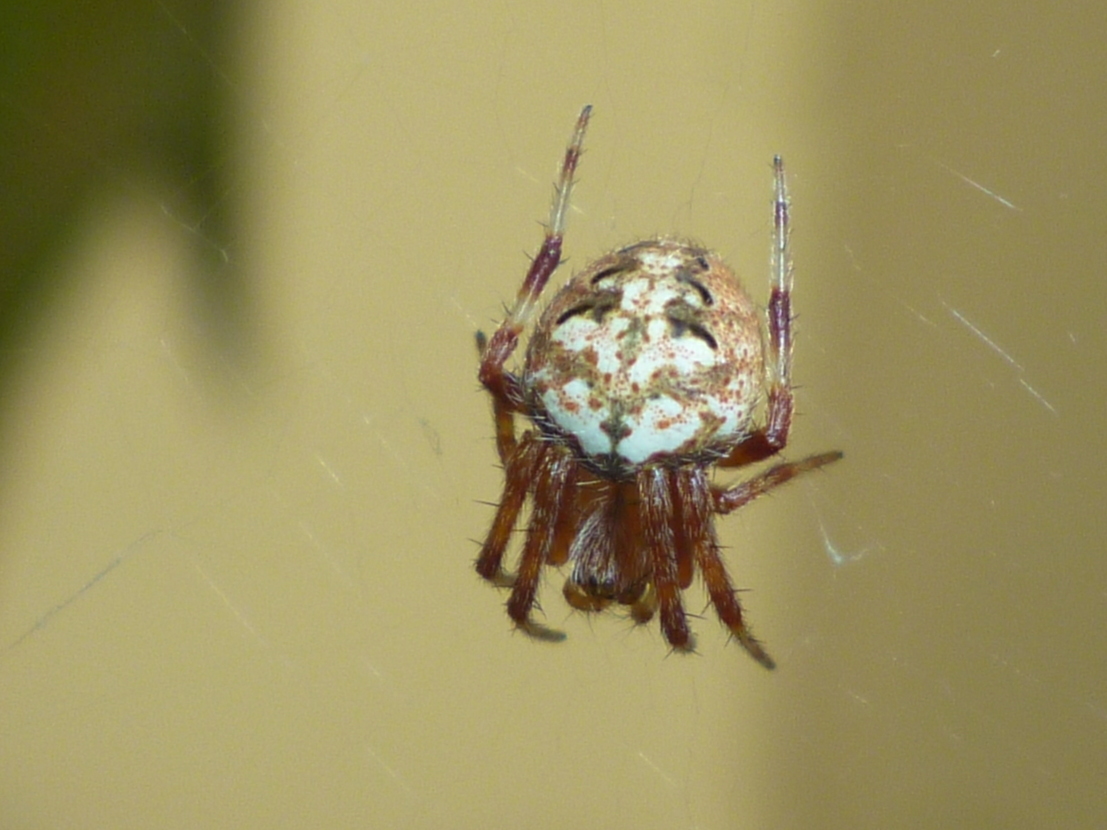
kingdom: Animalia
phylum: Arthropoda
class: Arachnida
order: Araneae
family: Araneidae
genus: Neoscona
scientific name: Neoscona arabesca
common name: Orb weavers
